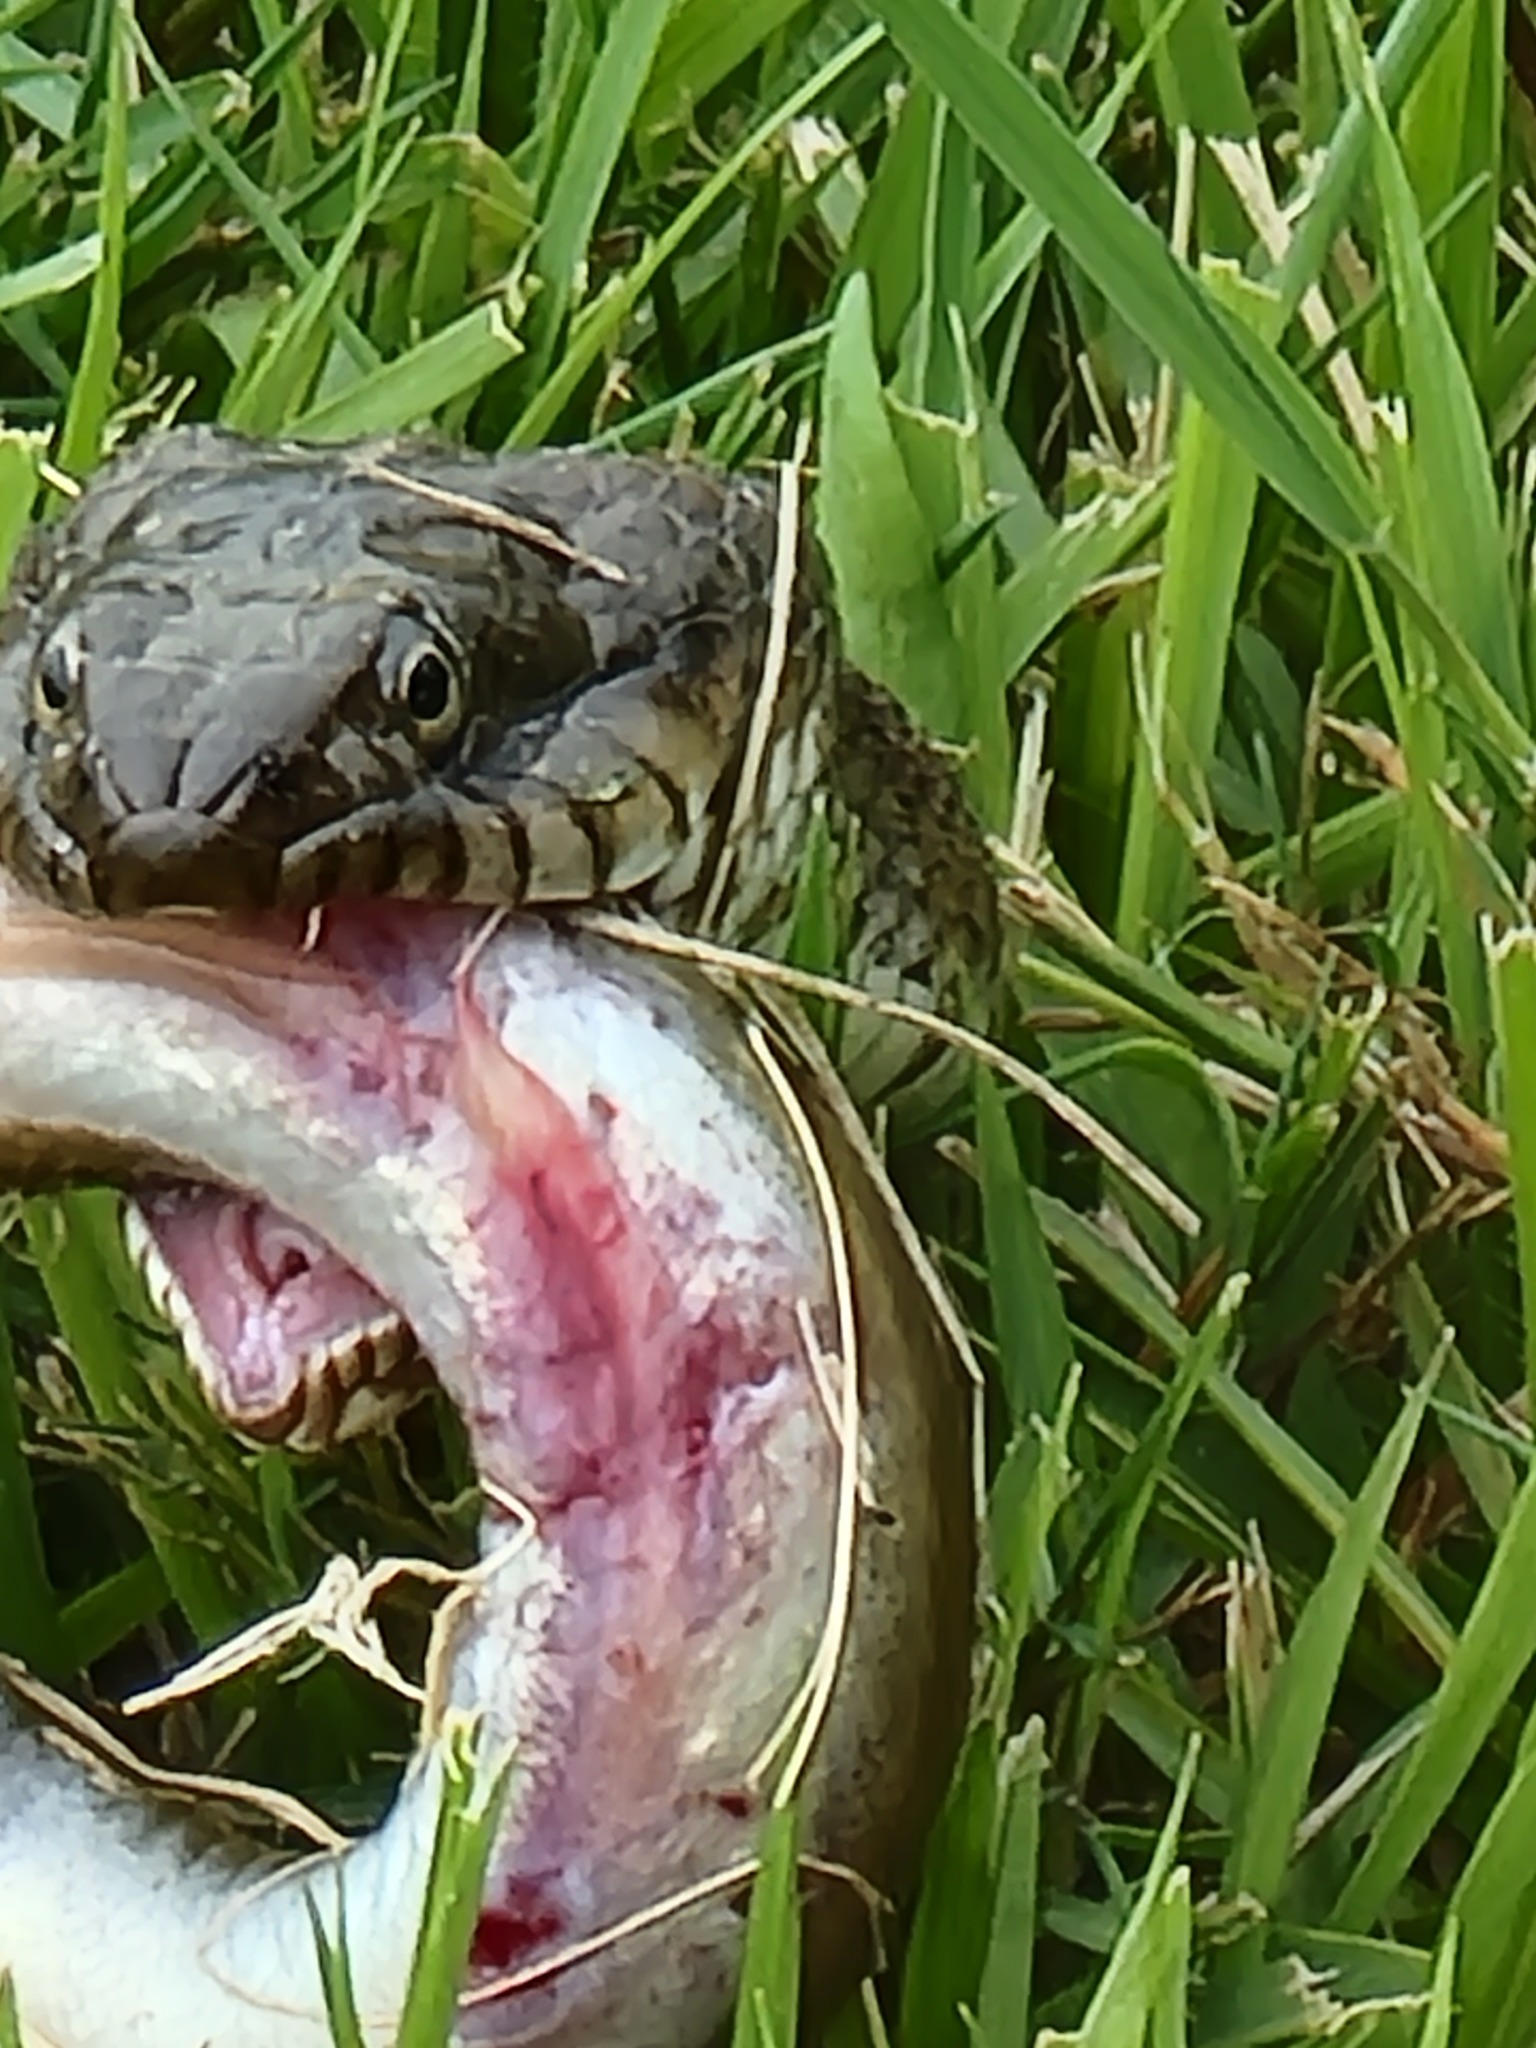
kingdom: Animalia
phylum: Chordata
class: Squamata
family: Colubridae
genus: Nerodia
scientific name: Nerodia sipedon
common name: Northern water snake
